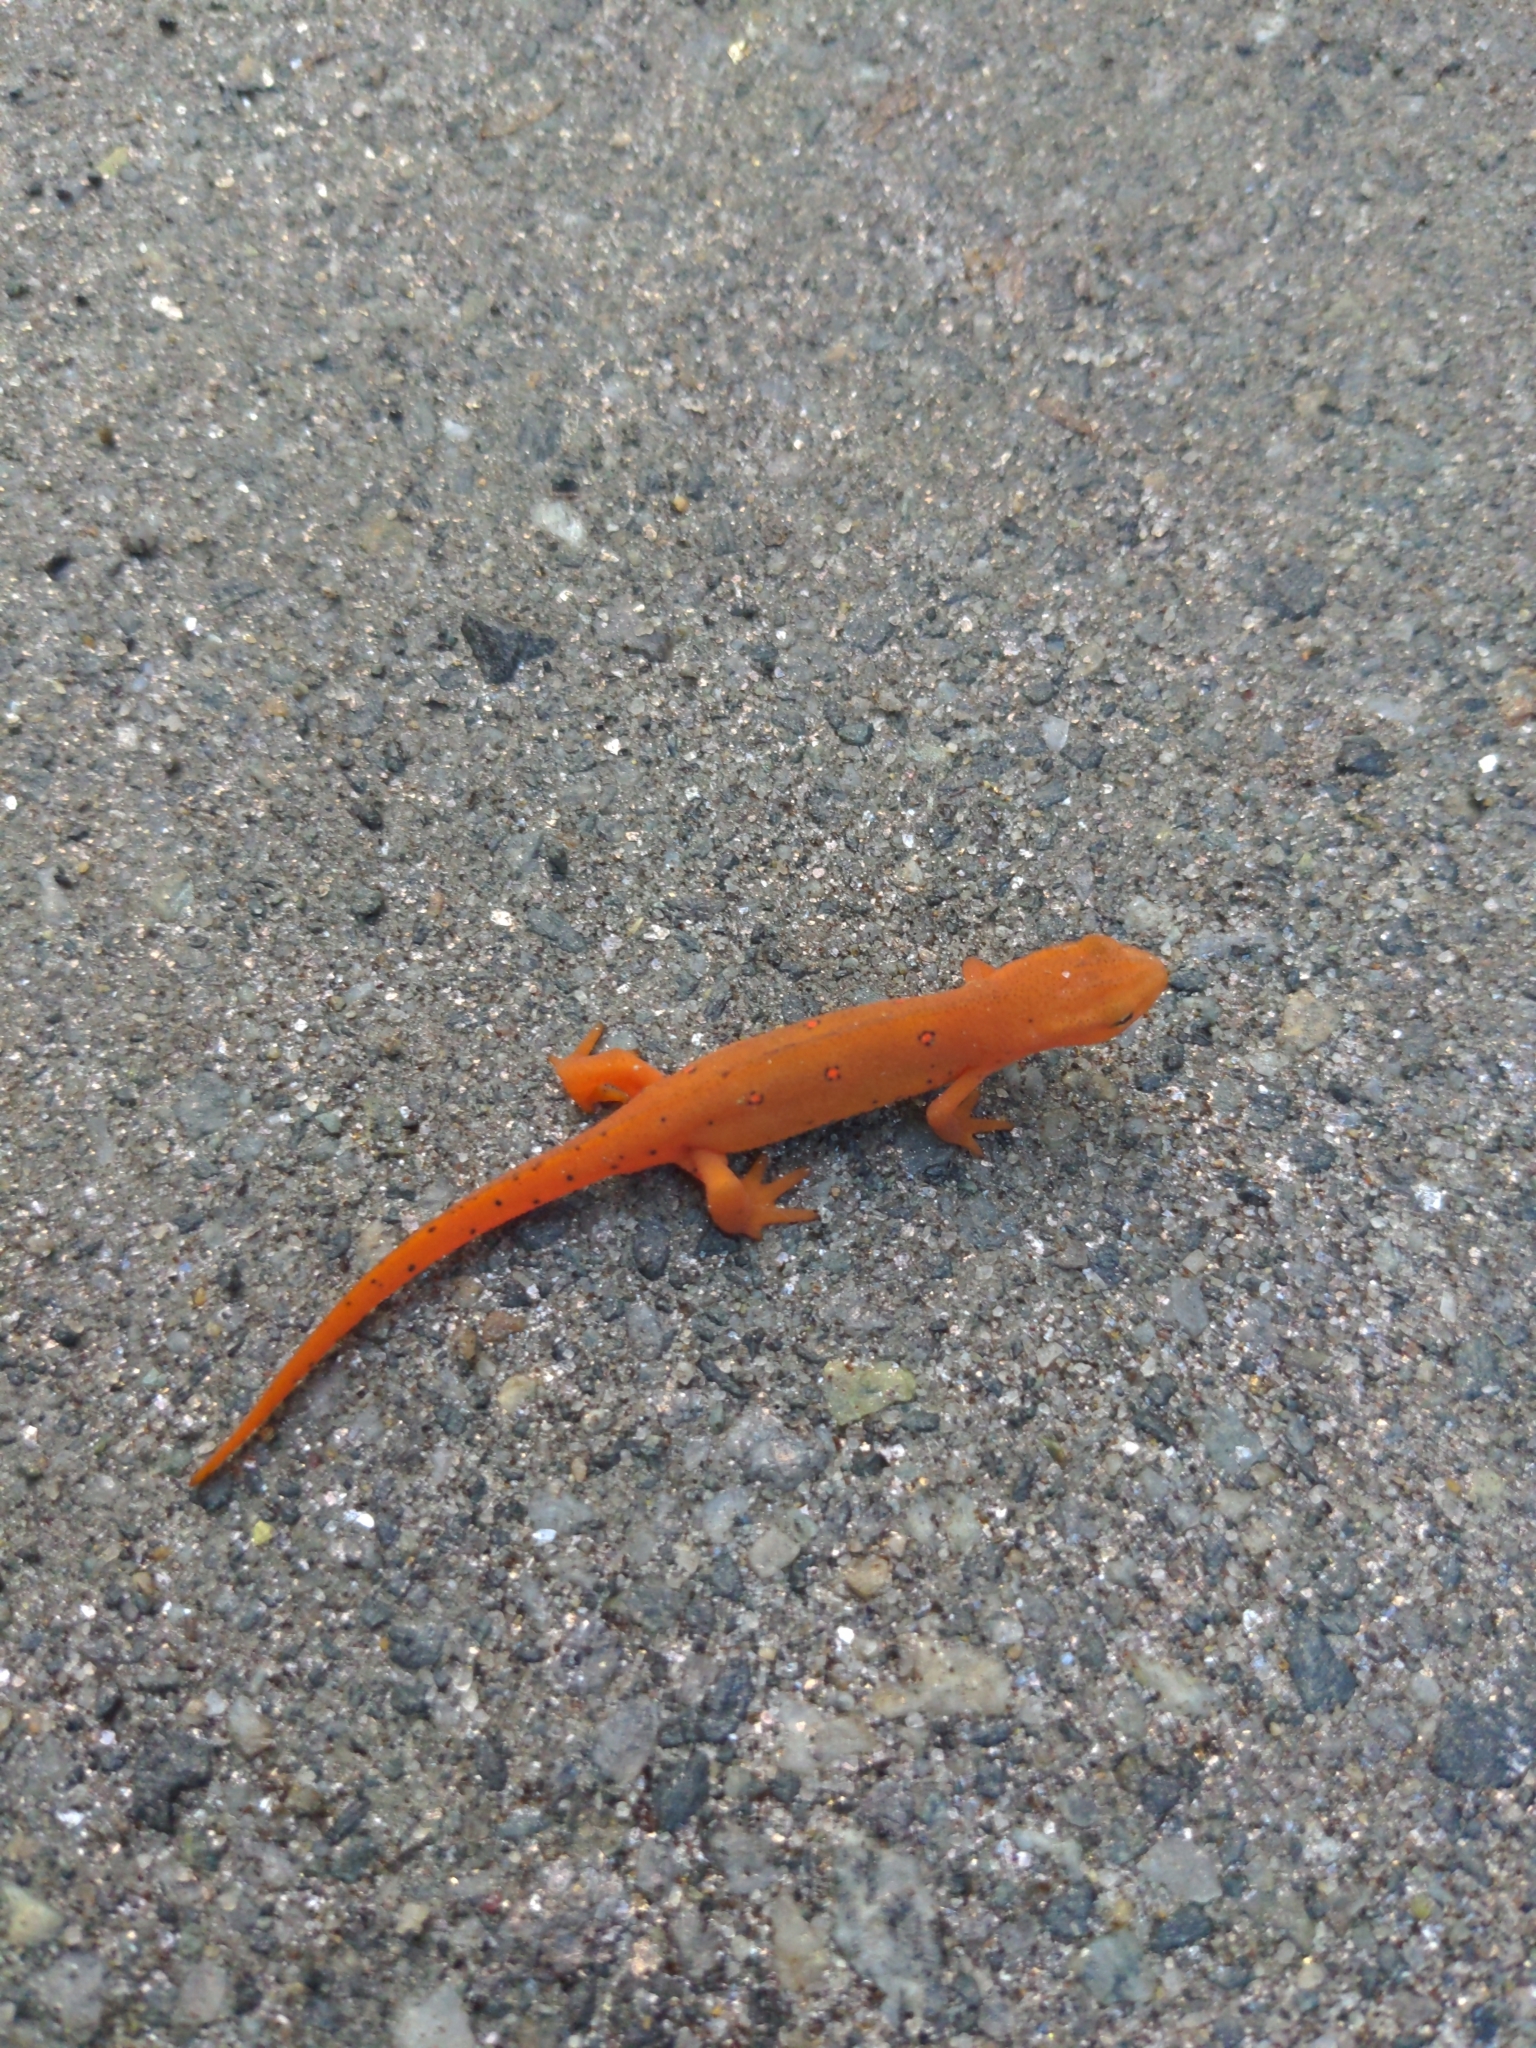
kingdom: Animalia
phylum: Chordata
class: Amphibia
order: Caudata
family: Salamandridae
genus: Notophthalmus
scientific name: Notophthalmus viridescens
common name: Eastern newt
